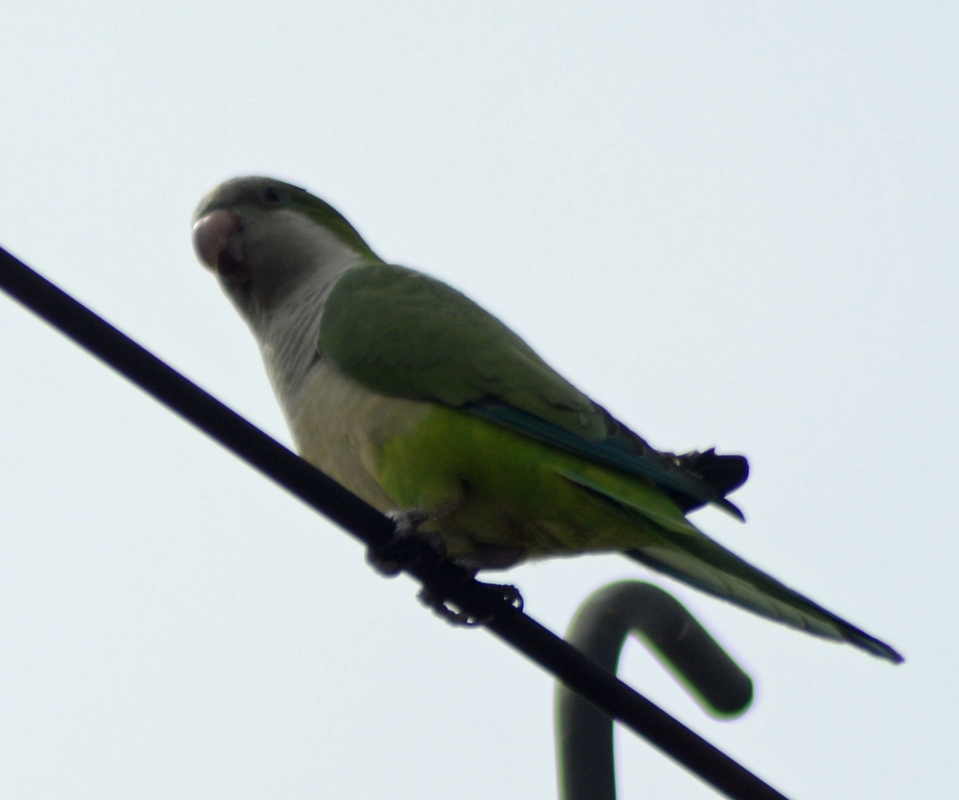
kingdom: Animalia
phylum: Chordata
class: Aves
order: Psittaciformes
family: Psittacidae
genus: Myiopsitta
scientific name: Myiopsitta monachus
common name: Monk parakeet
